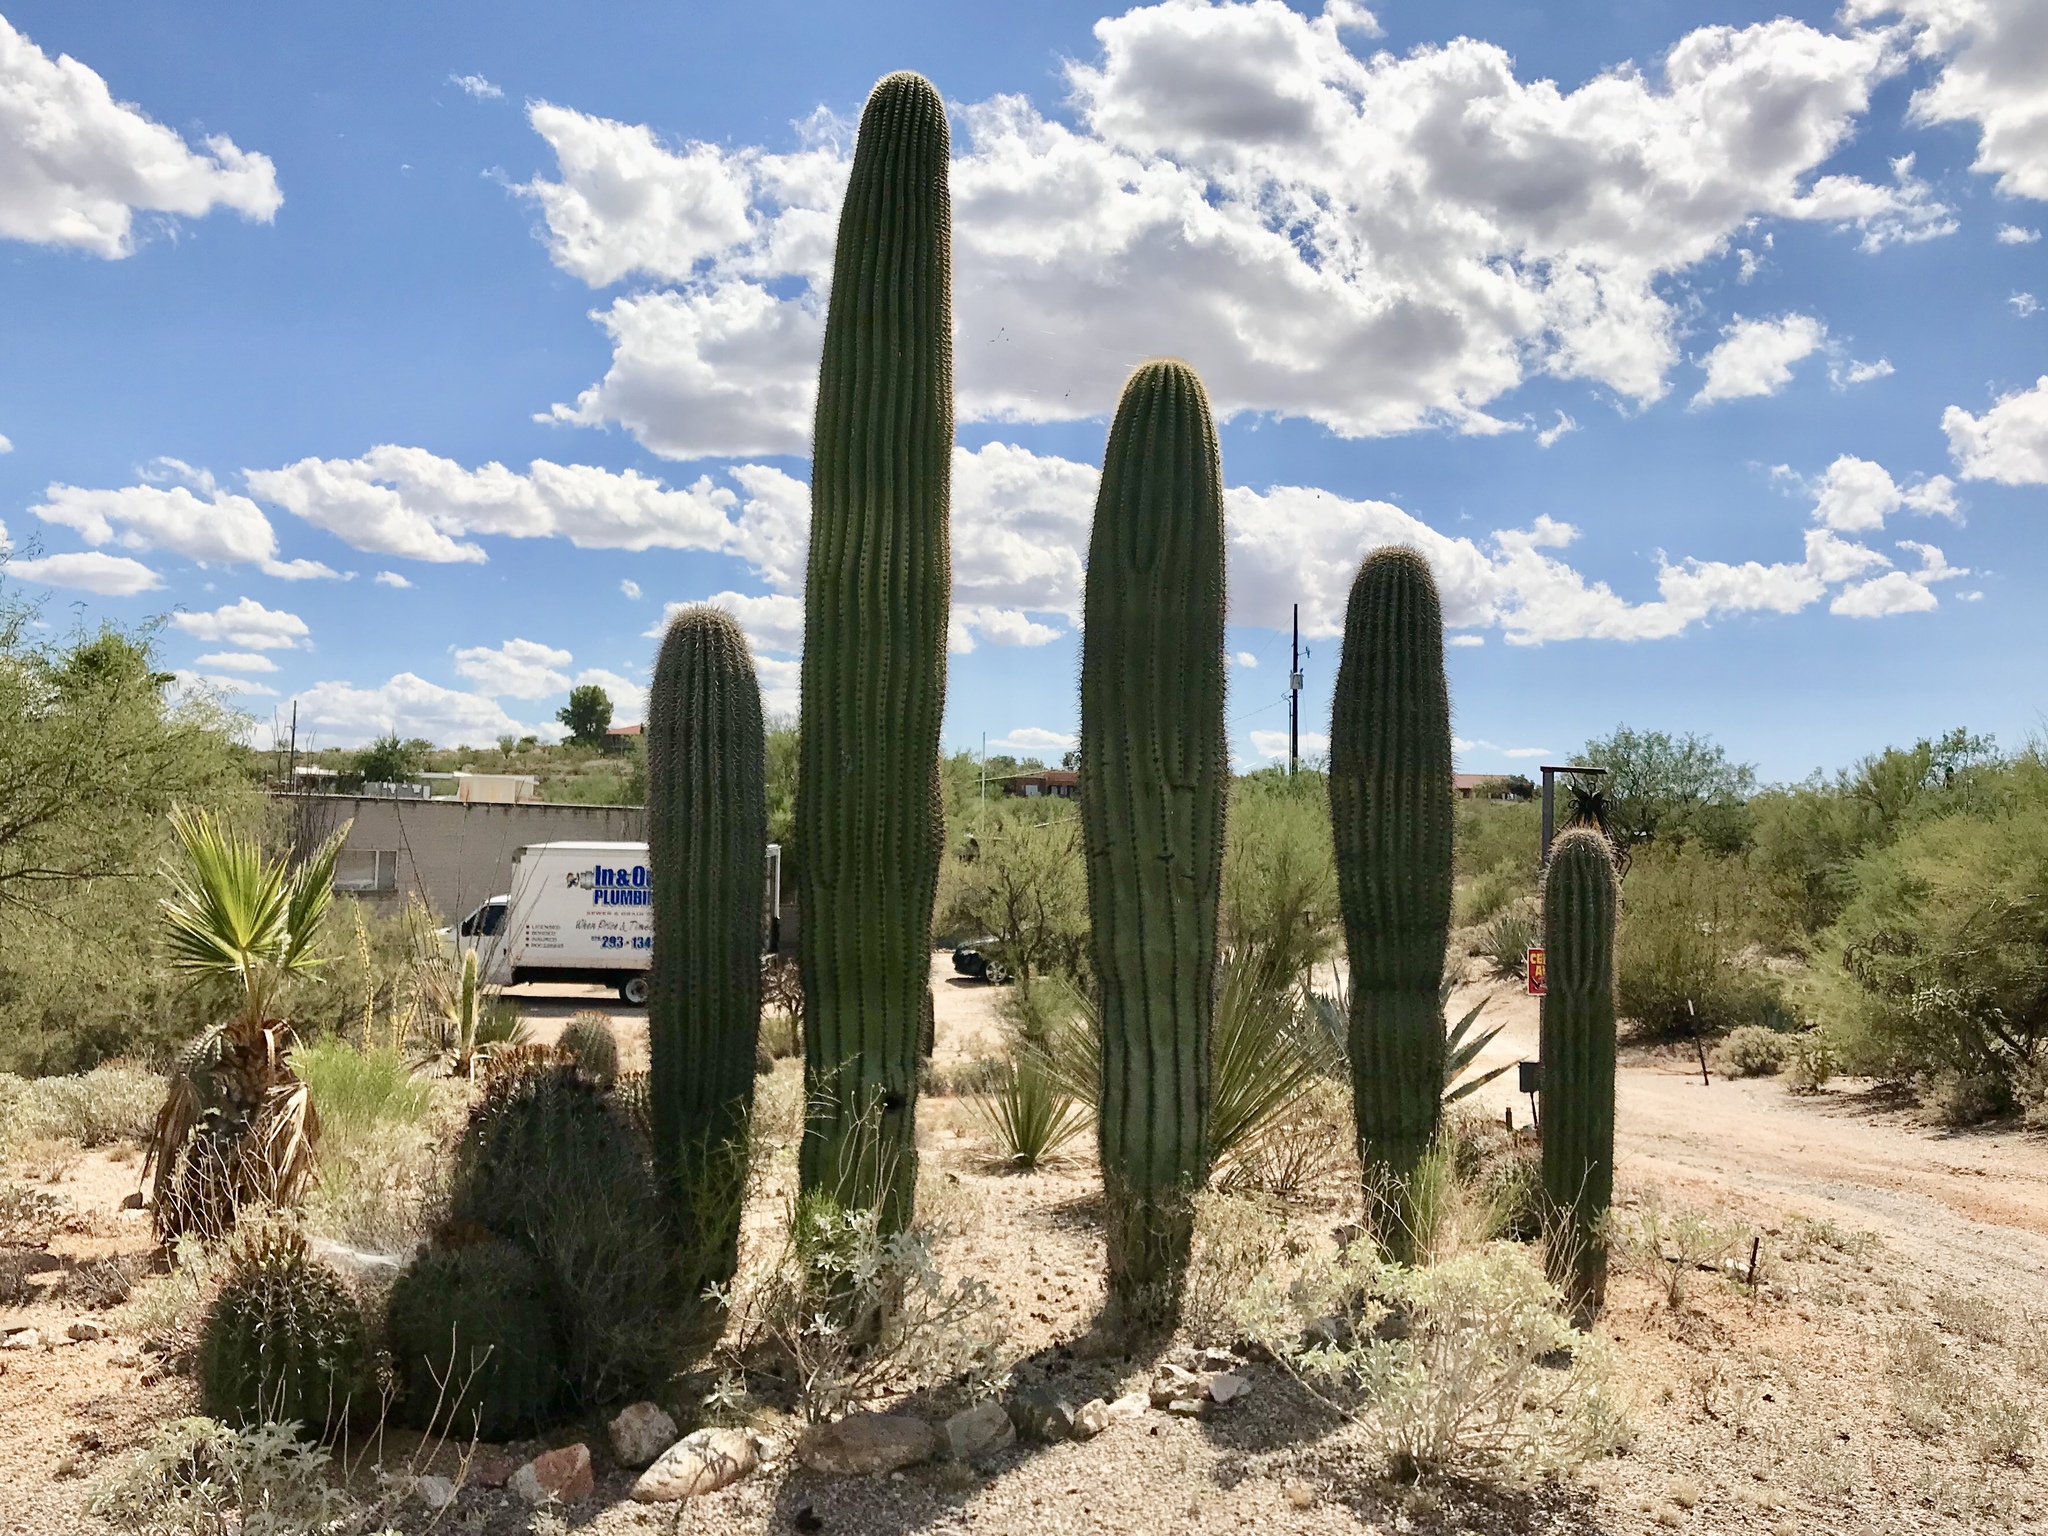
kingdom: Plantae
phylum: Tracheophyta
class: Magnoliopsida
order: Caryophyllales
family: Cactaceae
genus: Carnegiea
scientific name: Carnegiea gigantea
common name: Saguaro
